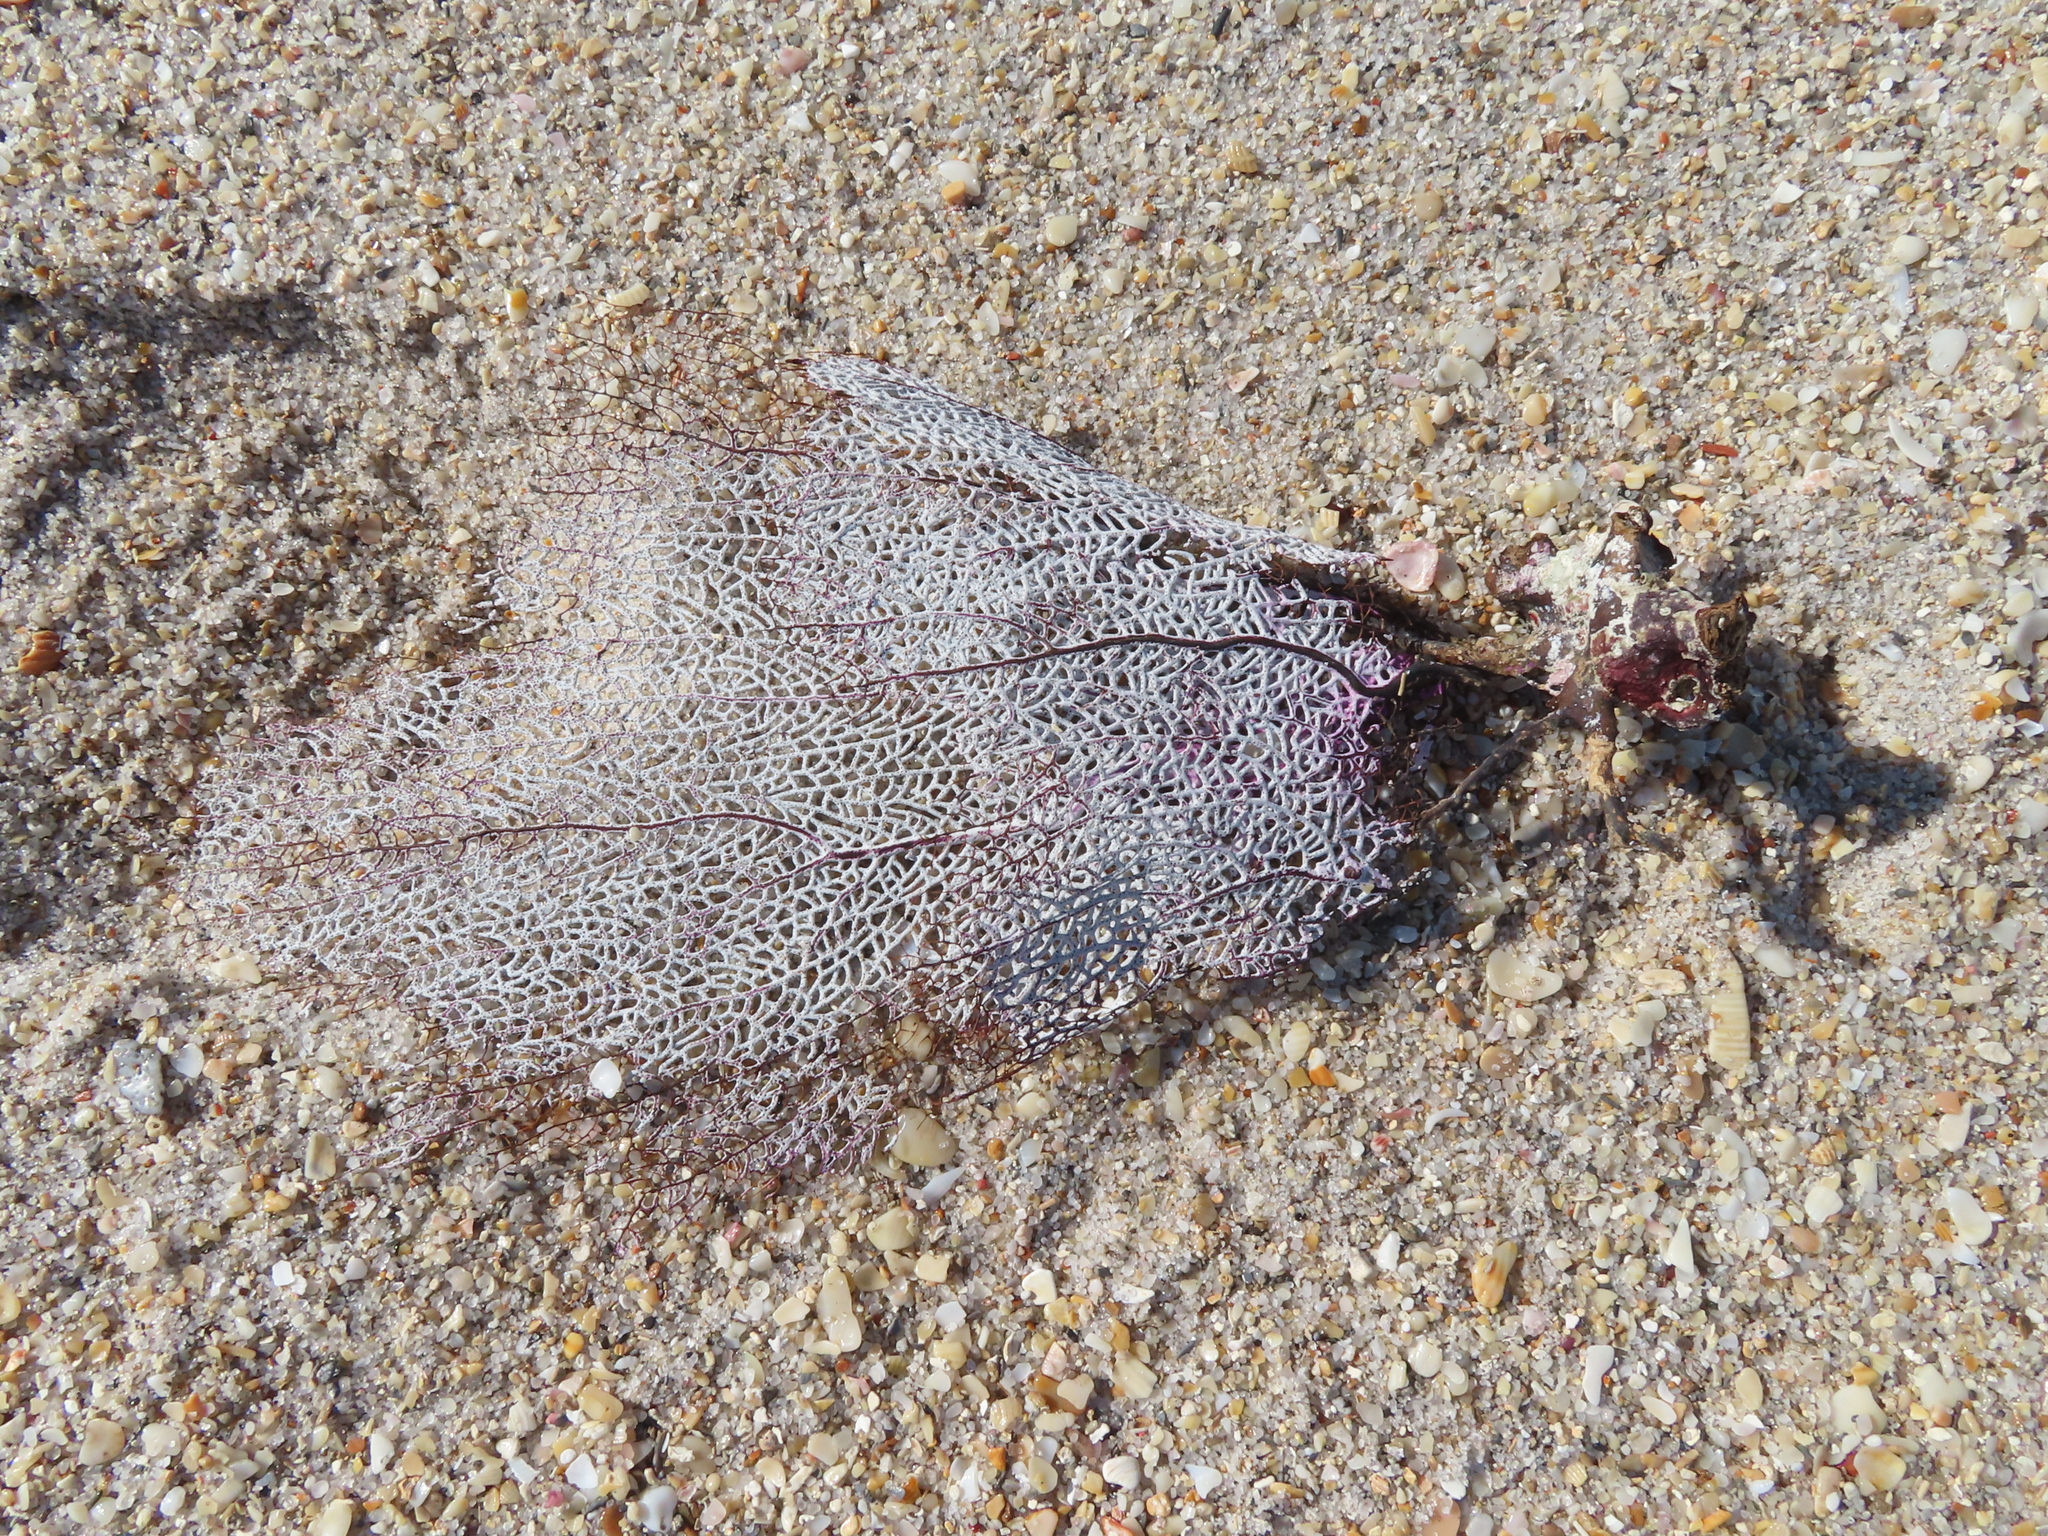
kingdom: Animalia
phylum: Cnidaria
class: Anthozoa
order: Malacalcyonacea
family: Gorgoniidae
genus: Gorgonia
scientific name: Gorgonia ventalina
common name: Common sea fan
